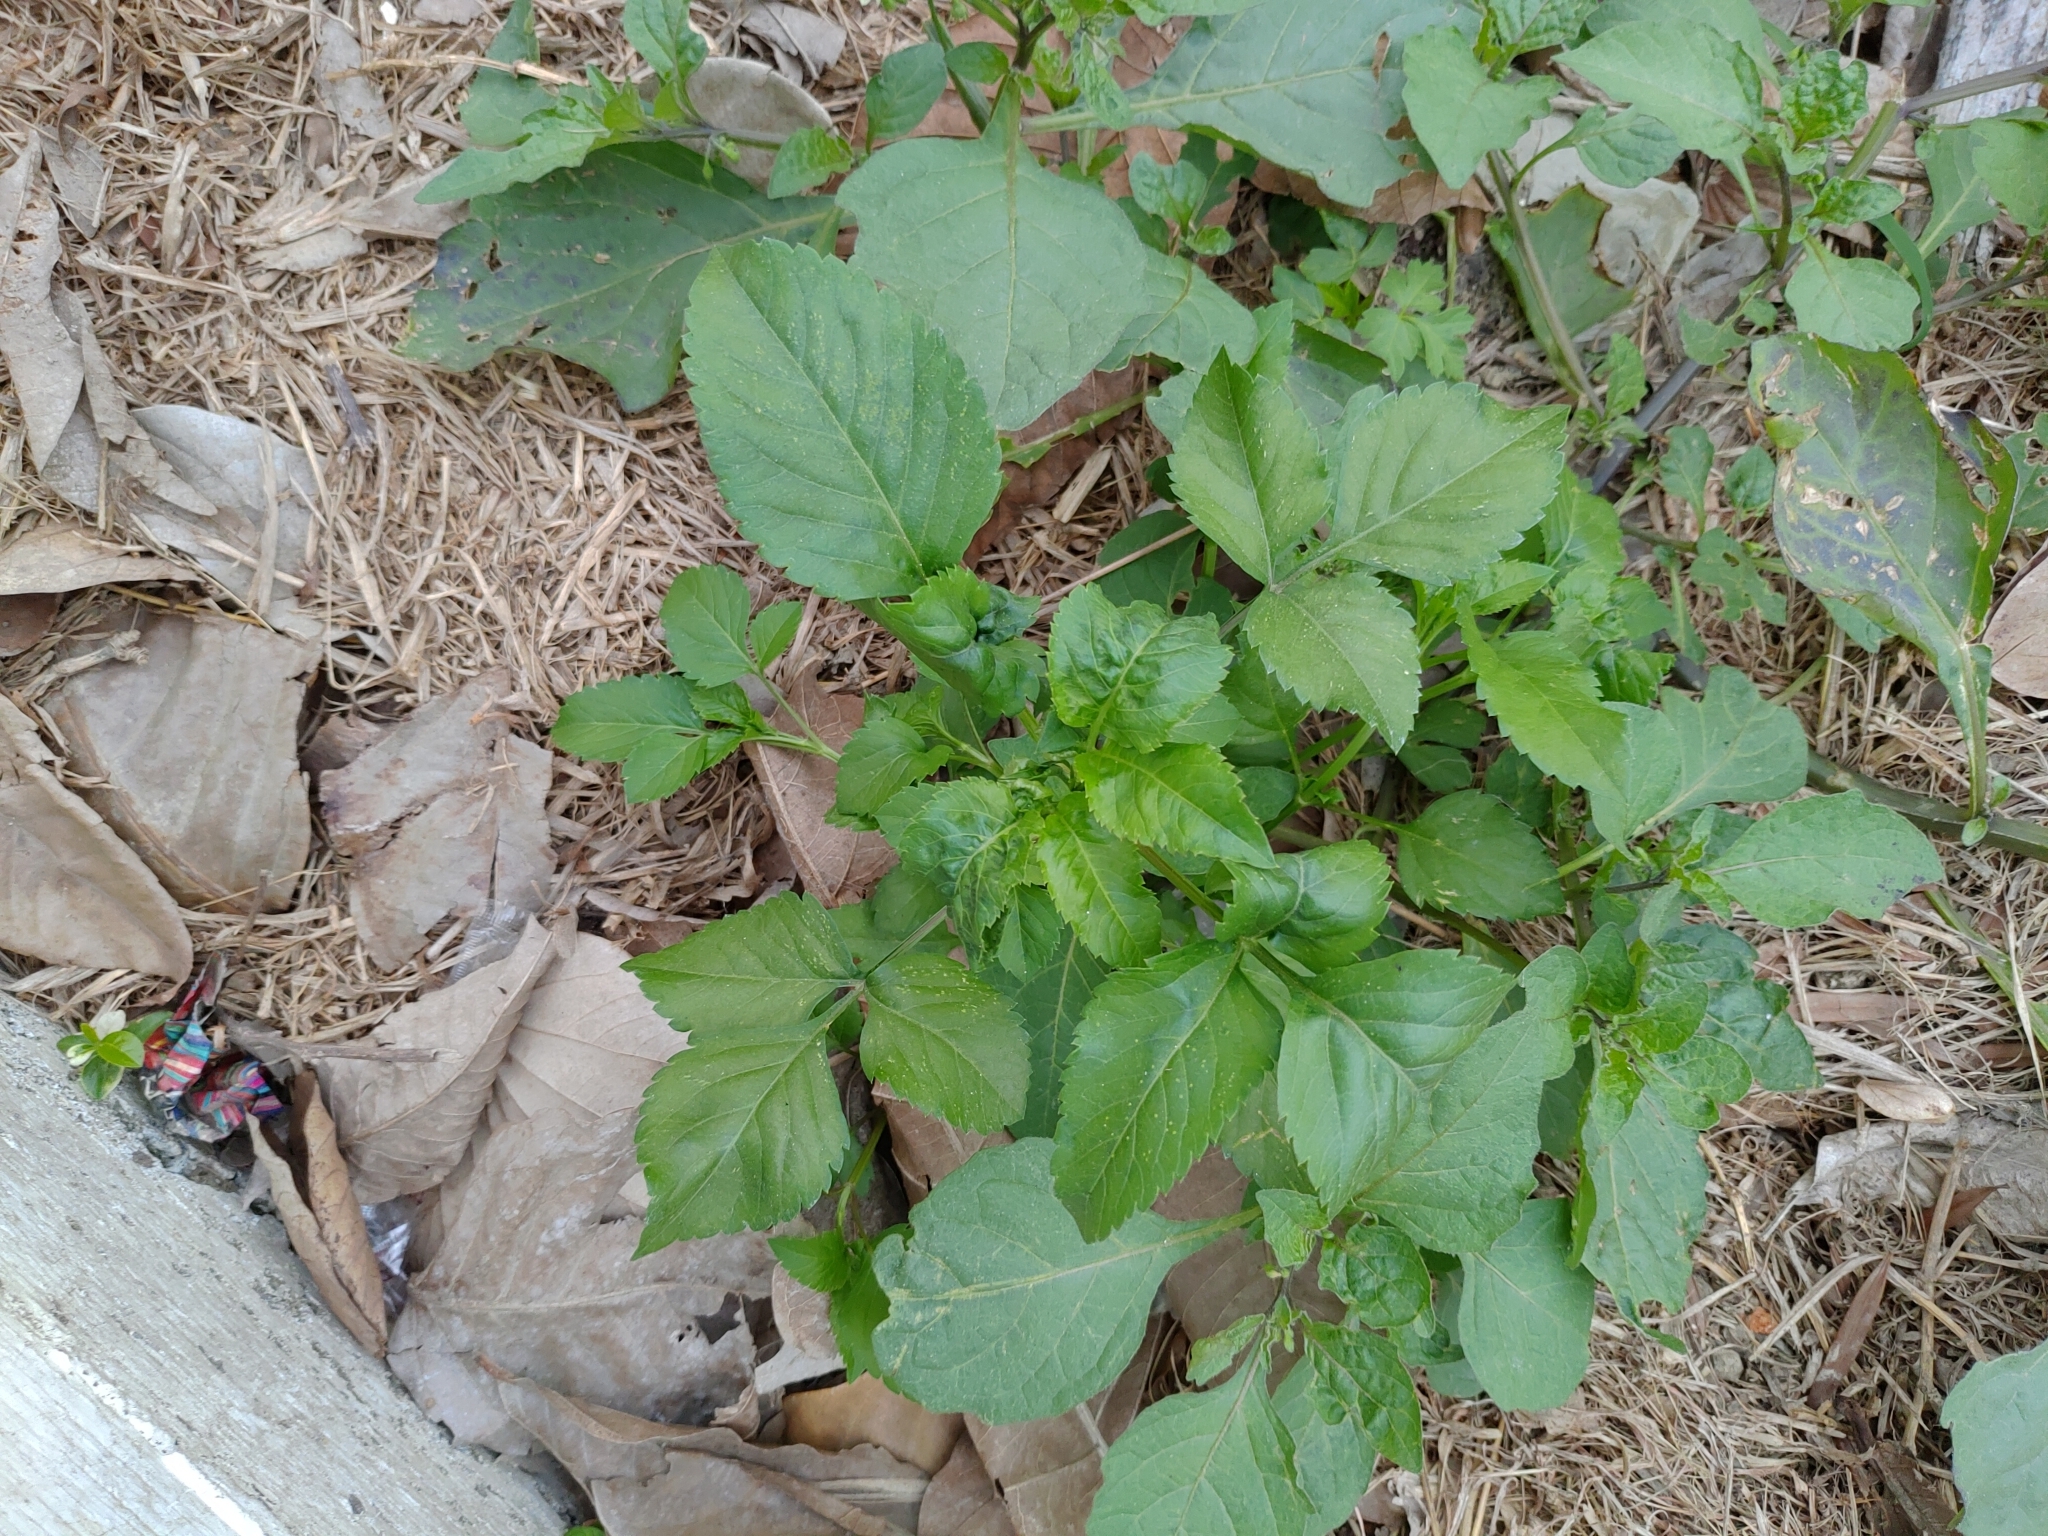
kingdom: Plantae
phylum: Tracheophyta
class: Magnoliopsida
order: Asterales
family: Asteraceae
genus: Bidens
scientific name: Bidens alba
